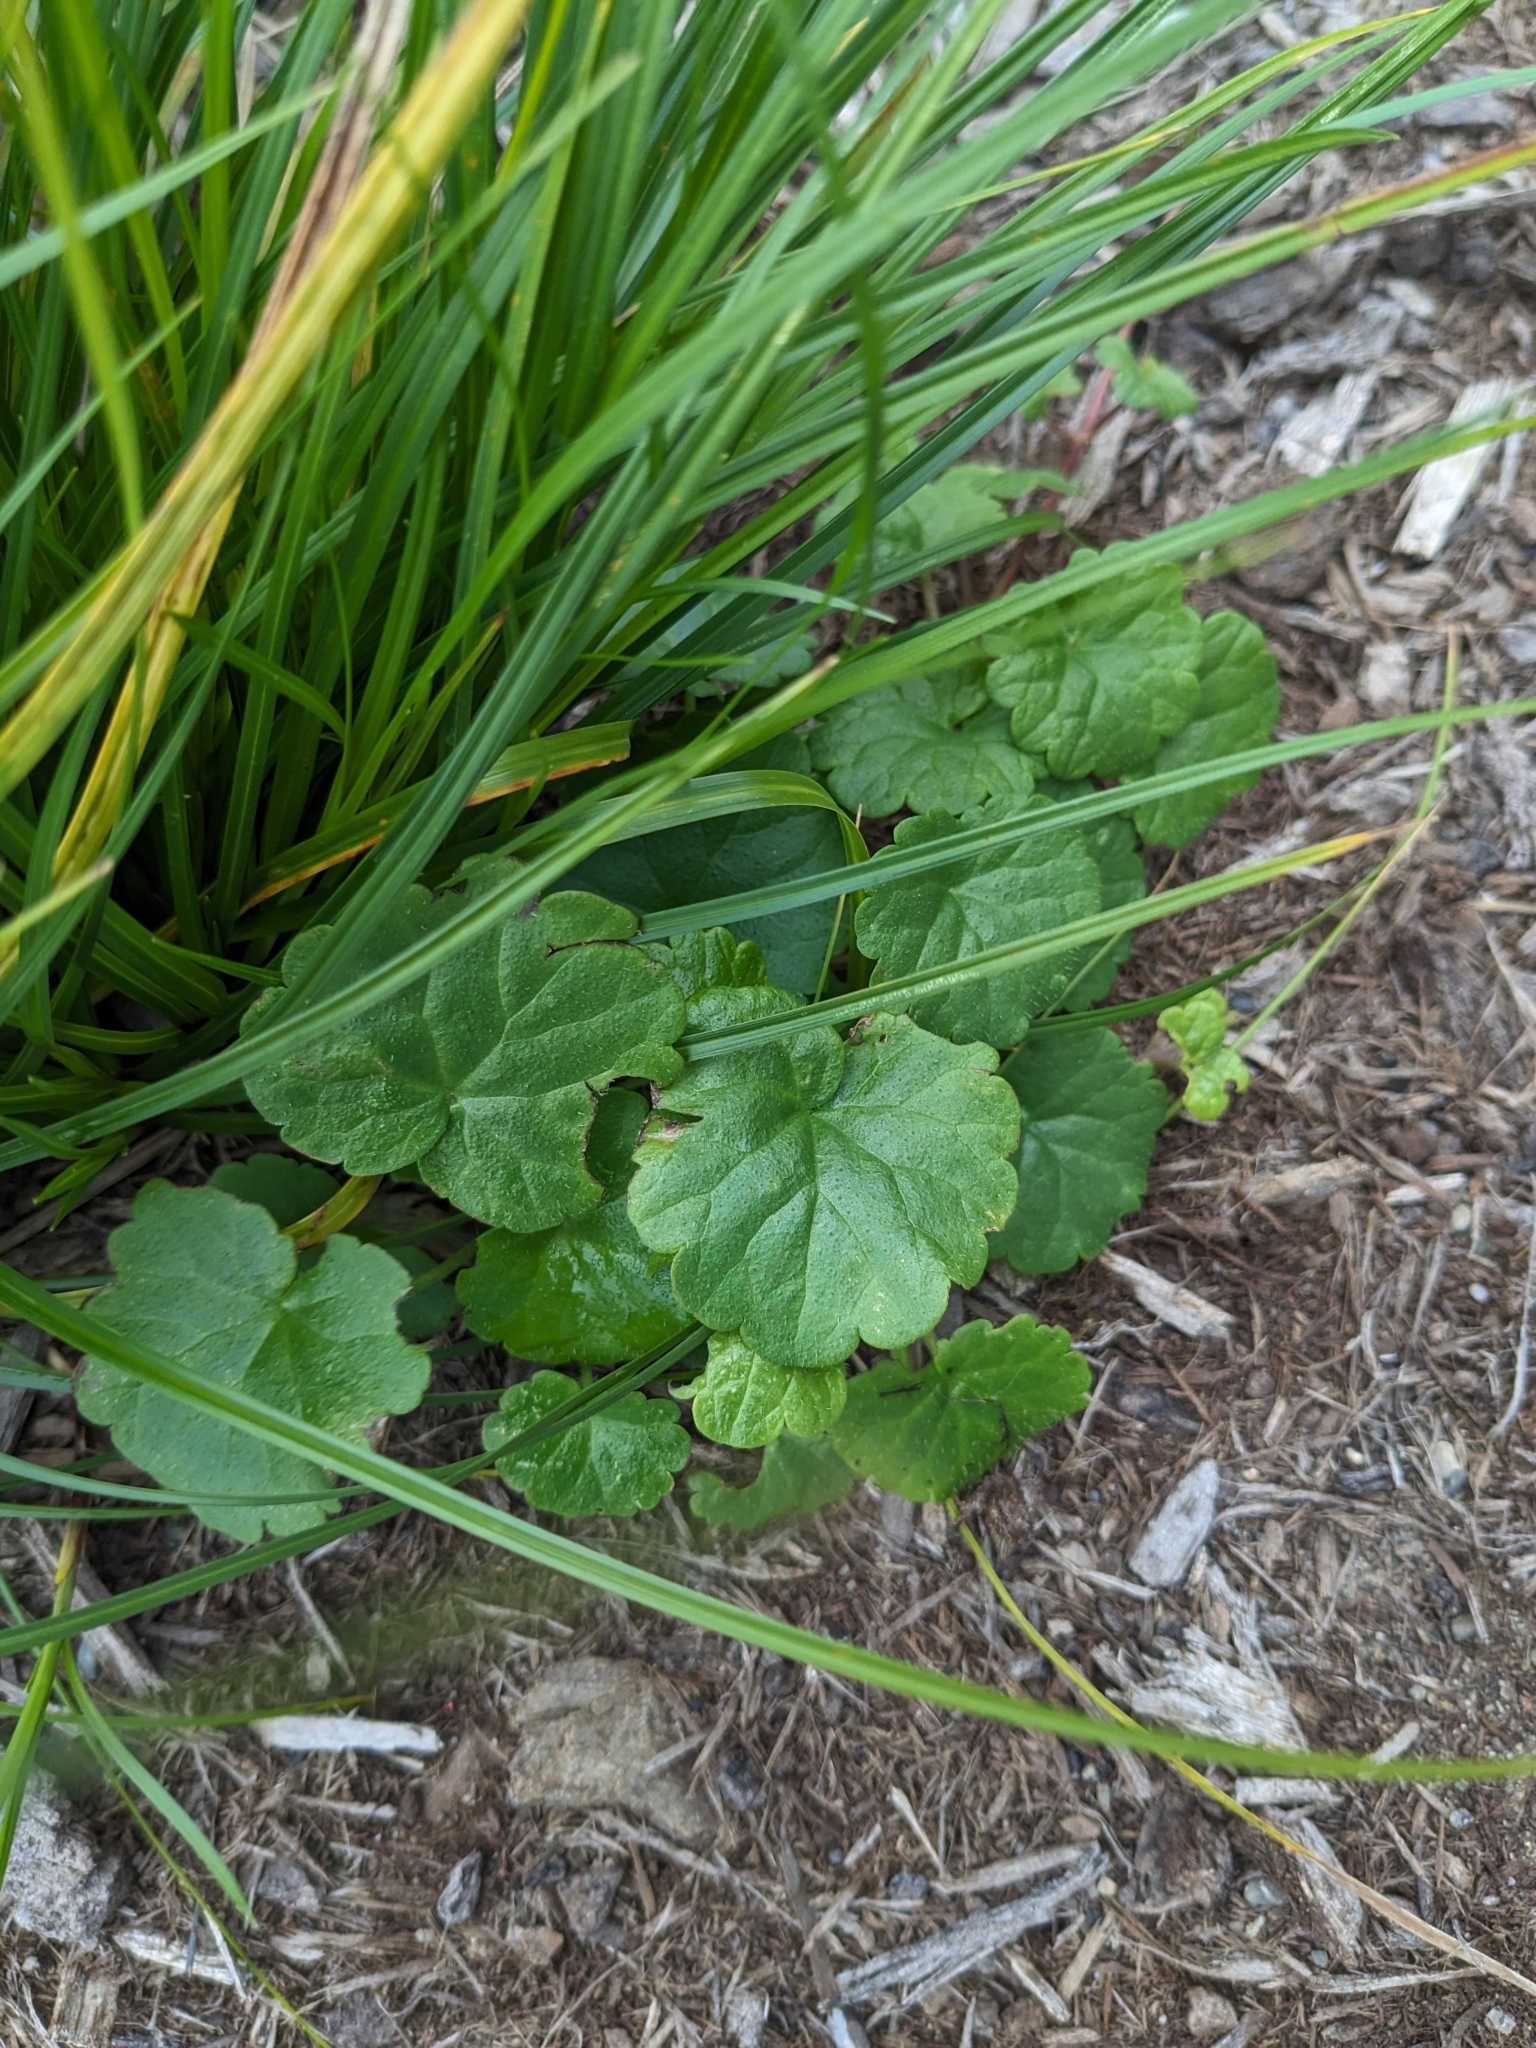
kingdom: Plantae
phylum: Tracheophyta
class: Magnoliopsida
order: Lamiales
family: Lamiaceae
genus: Glechoma
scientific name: Glechoma hederacea
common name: Ground ivy
